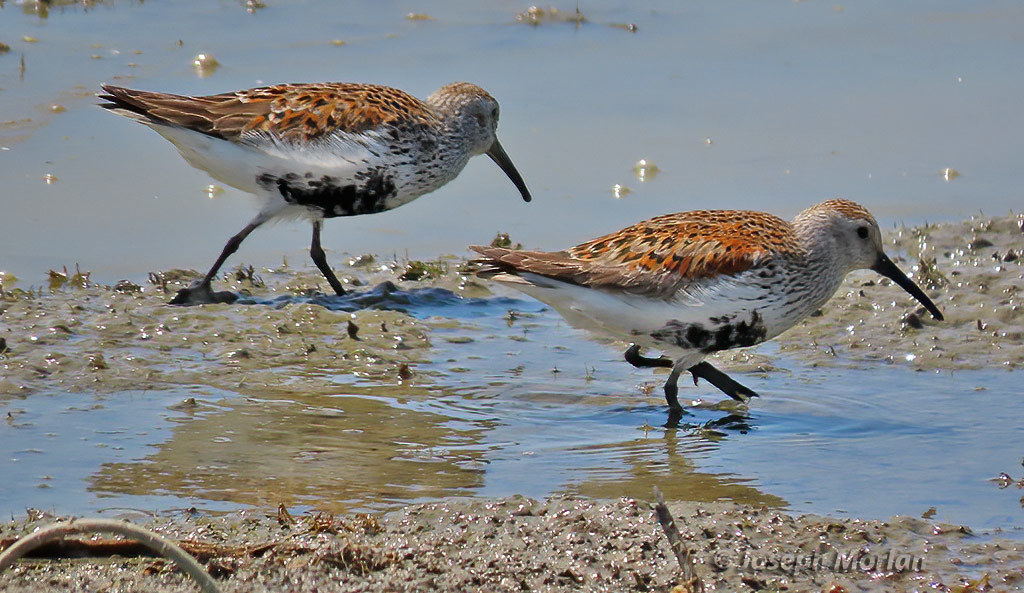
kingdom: Animalia
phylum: Chordata
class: Aves
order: Charadriiformes
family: Scolopacidae
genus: Calidris
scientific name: Calidris alpina
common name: Dunlin
